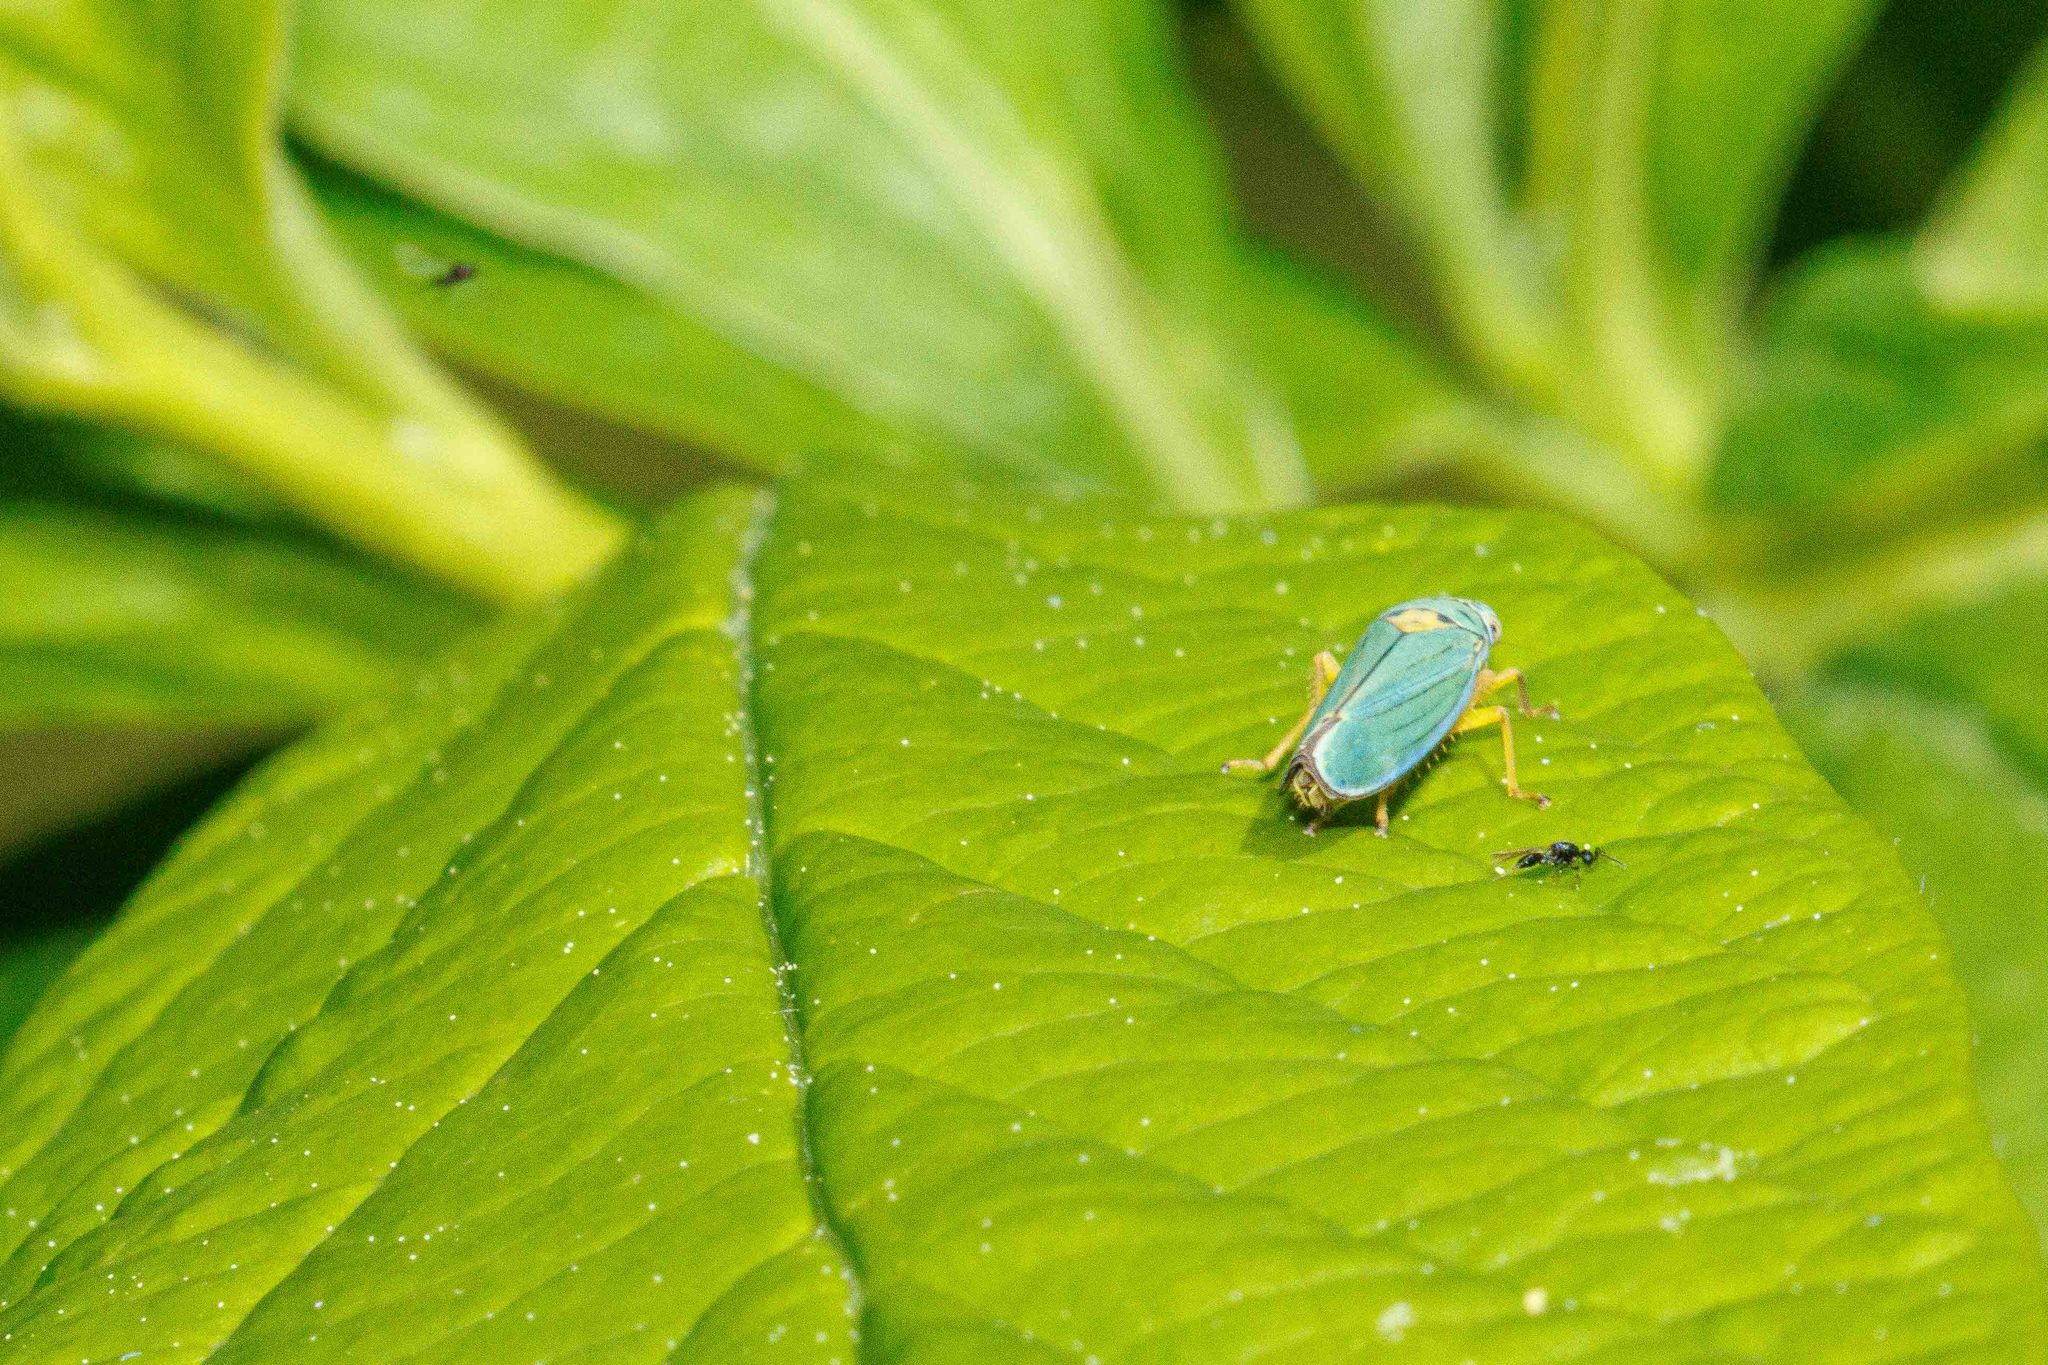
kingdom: Animalia
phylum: Arthropoda
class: Insecta
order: Hemiptera
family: Cicadellidae
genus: Graphocephala
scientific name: Graphocephala atropunctata
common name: Blue-green sharpshooter
